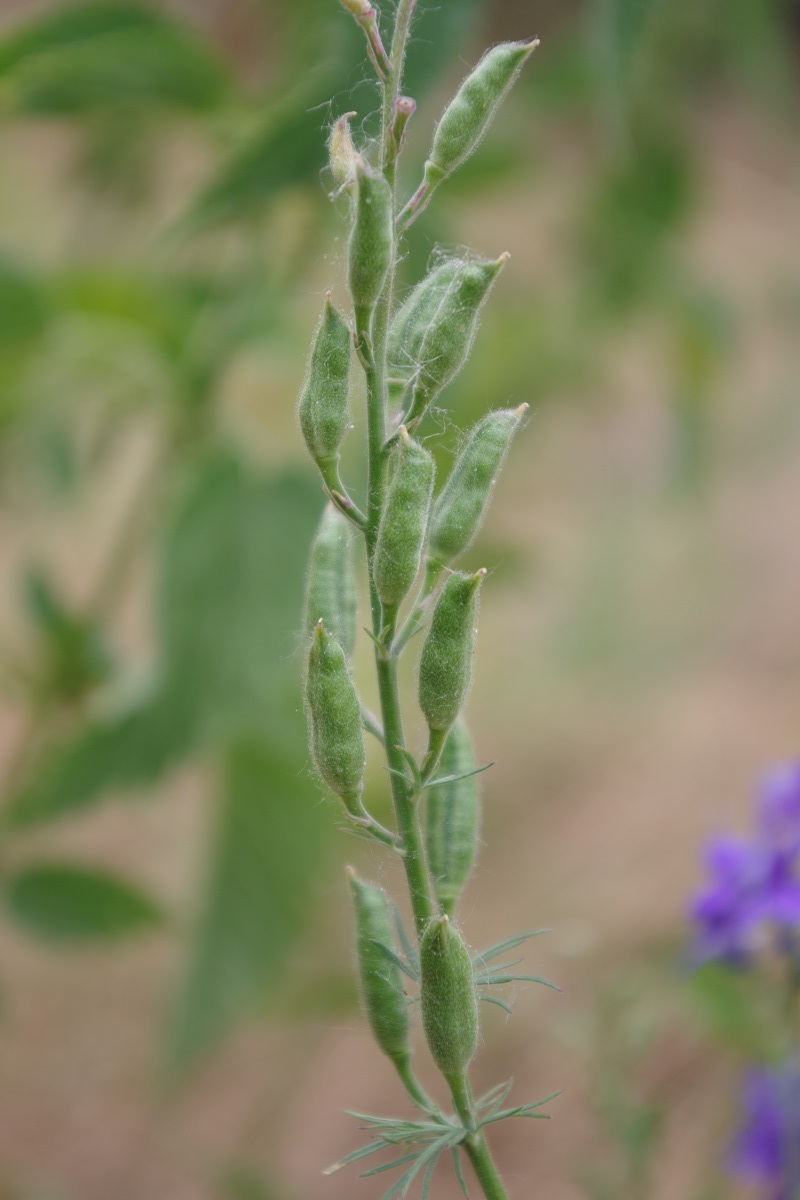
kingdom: Plantae
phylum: Tracheophyta
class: Magnoliopsida
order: Ranunculales
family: Ranunculaceae
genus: Delphinium
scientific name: Delphinium ajacis
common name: Doubtful knight's-spur
